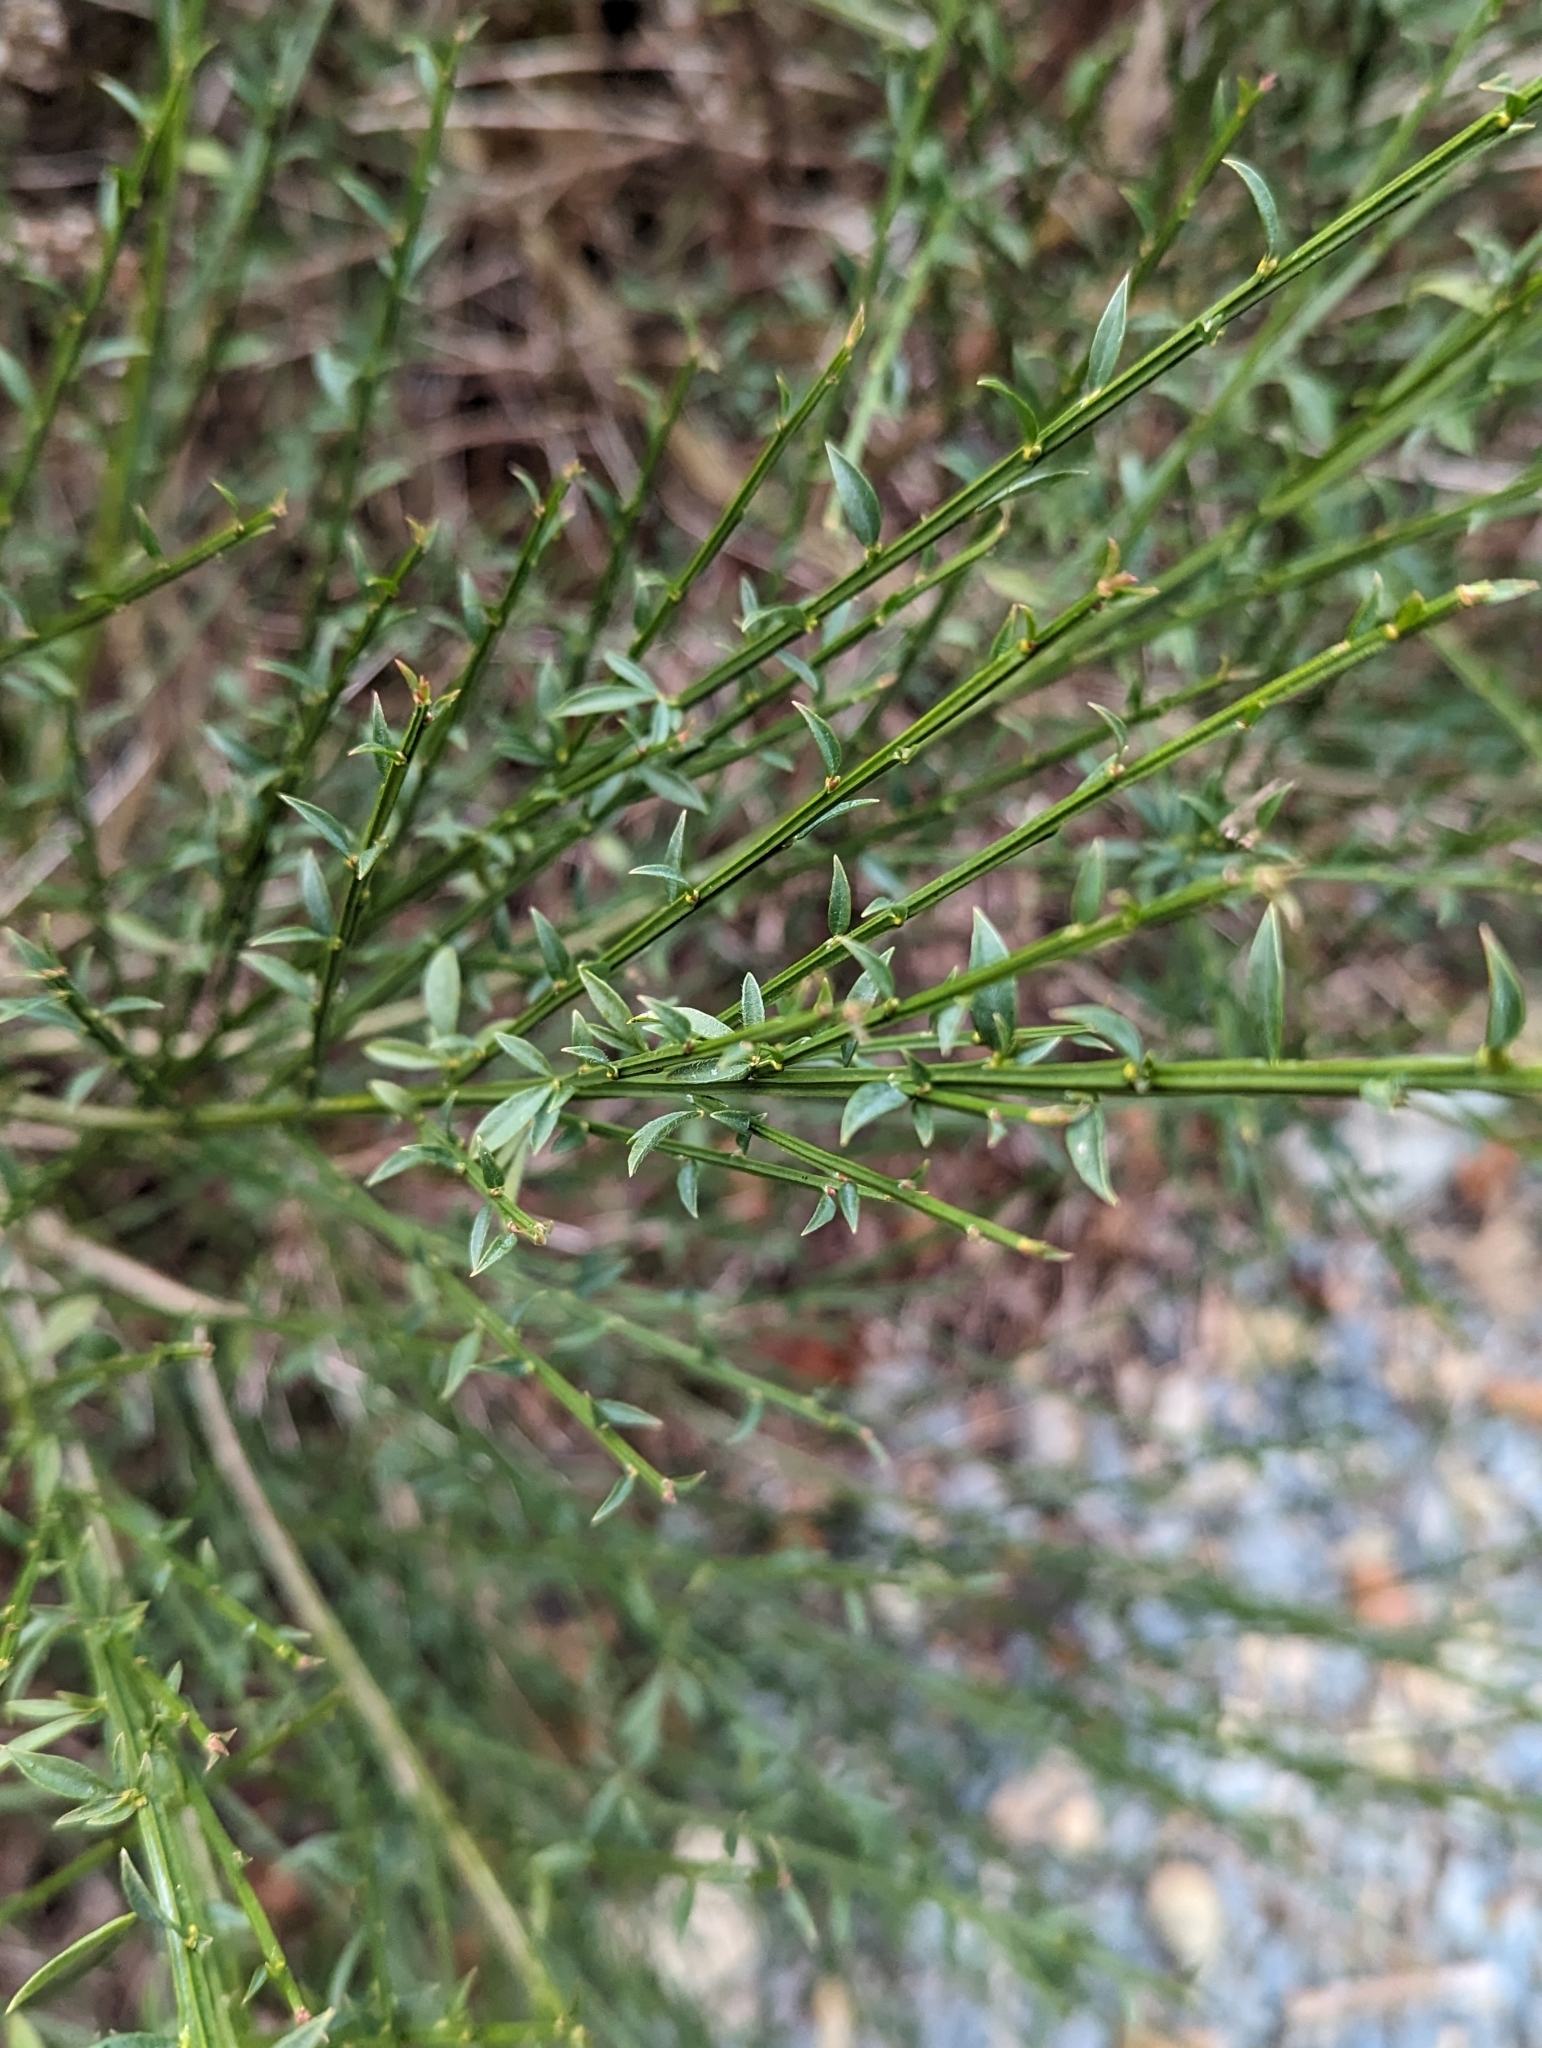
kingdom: Plantae
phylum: Tracheophyta
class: Magnoliopsida
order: Fabales
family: Fabaceae
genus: Cytisus
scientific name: Cytisus scoparius
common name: Scotch broom
